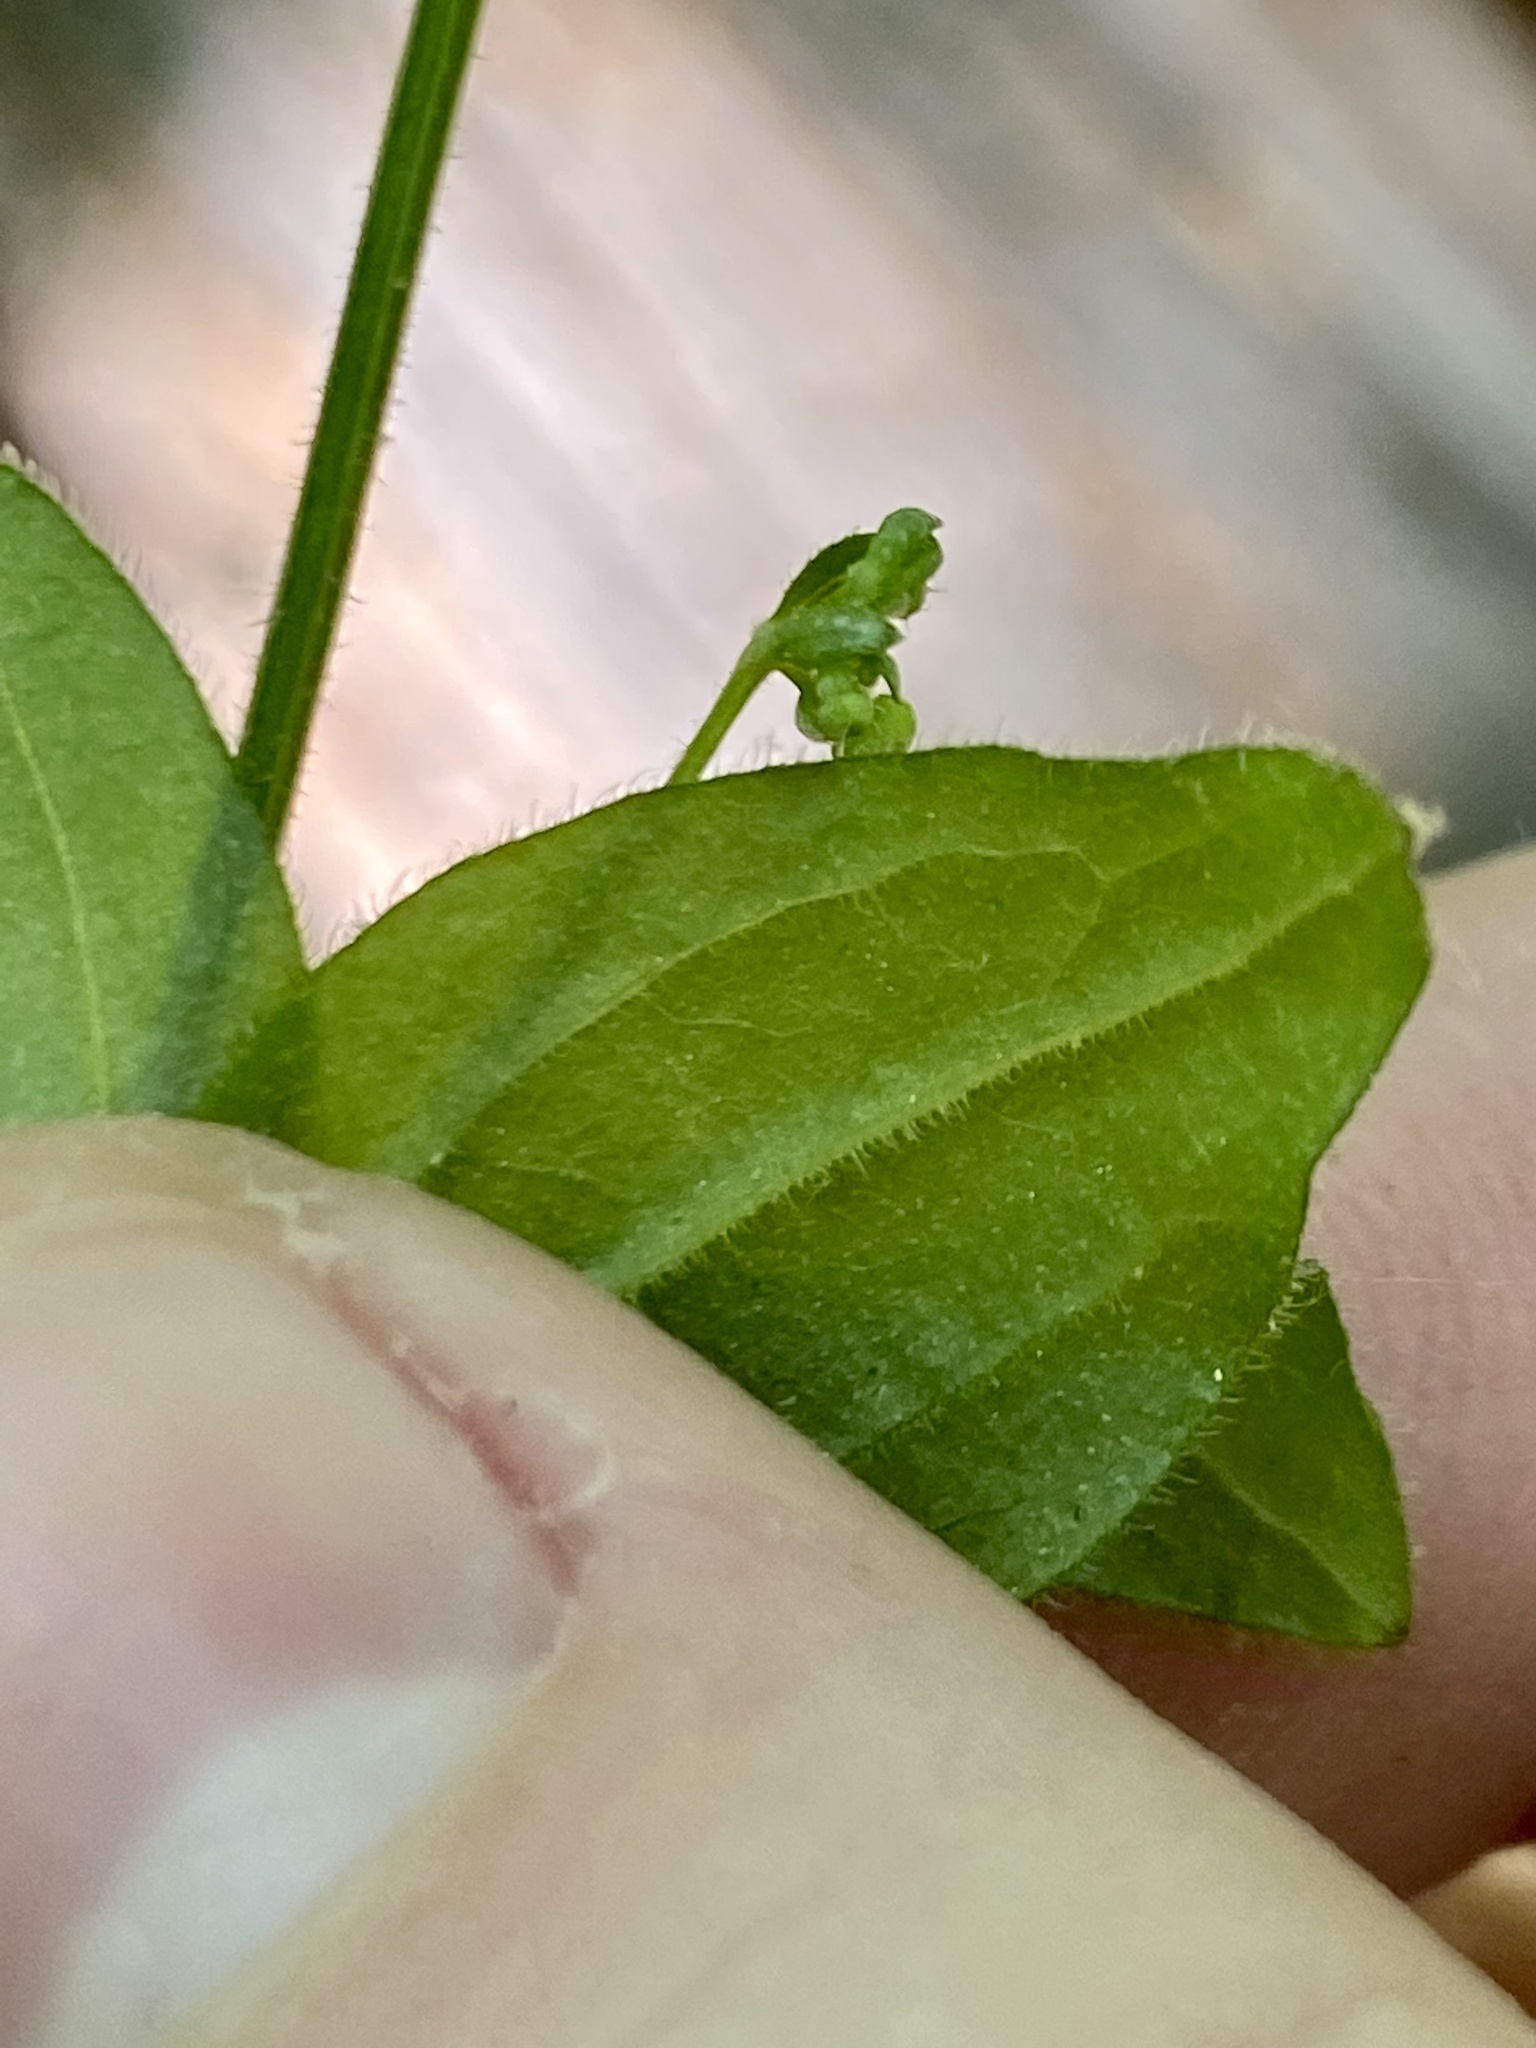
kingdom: Plantae
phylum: Tracheophyta
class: Magnoliopsida
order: Gentianales
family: Rubiaceae
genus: Galium
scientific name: Galium circaezans
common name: Forest bedstraw
